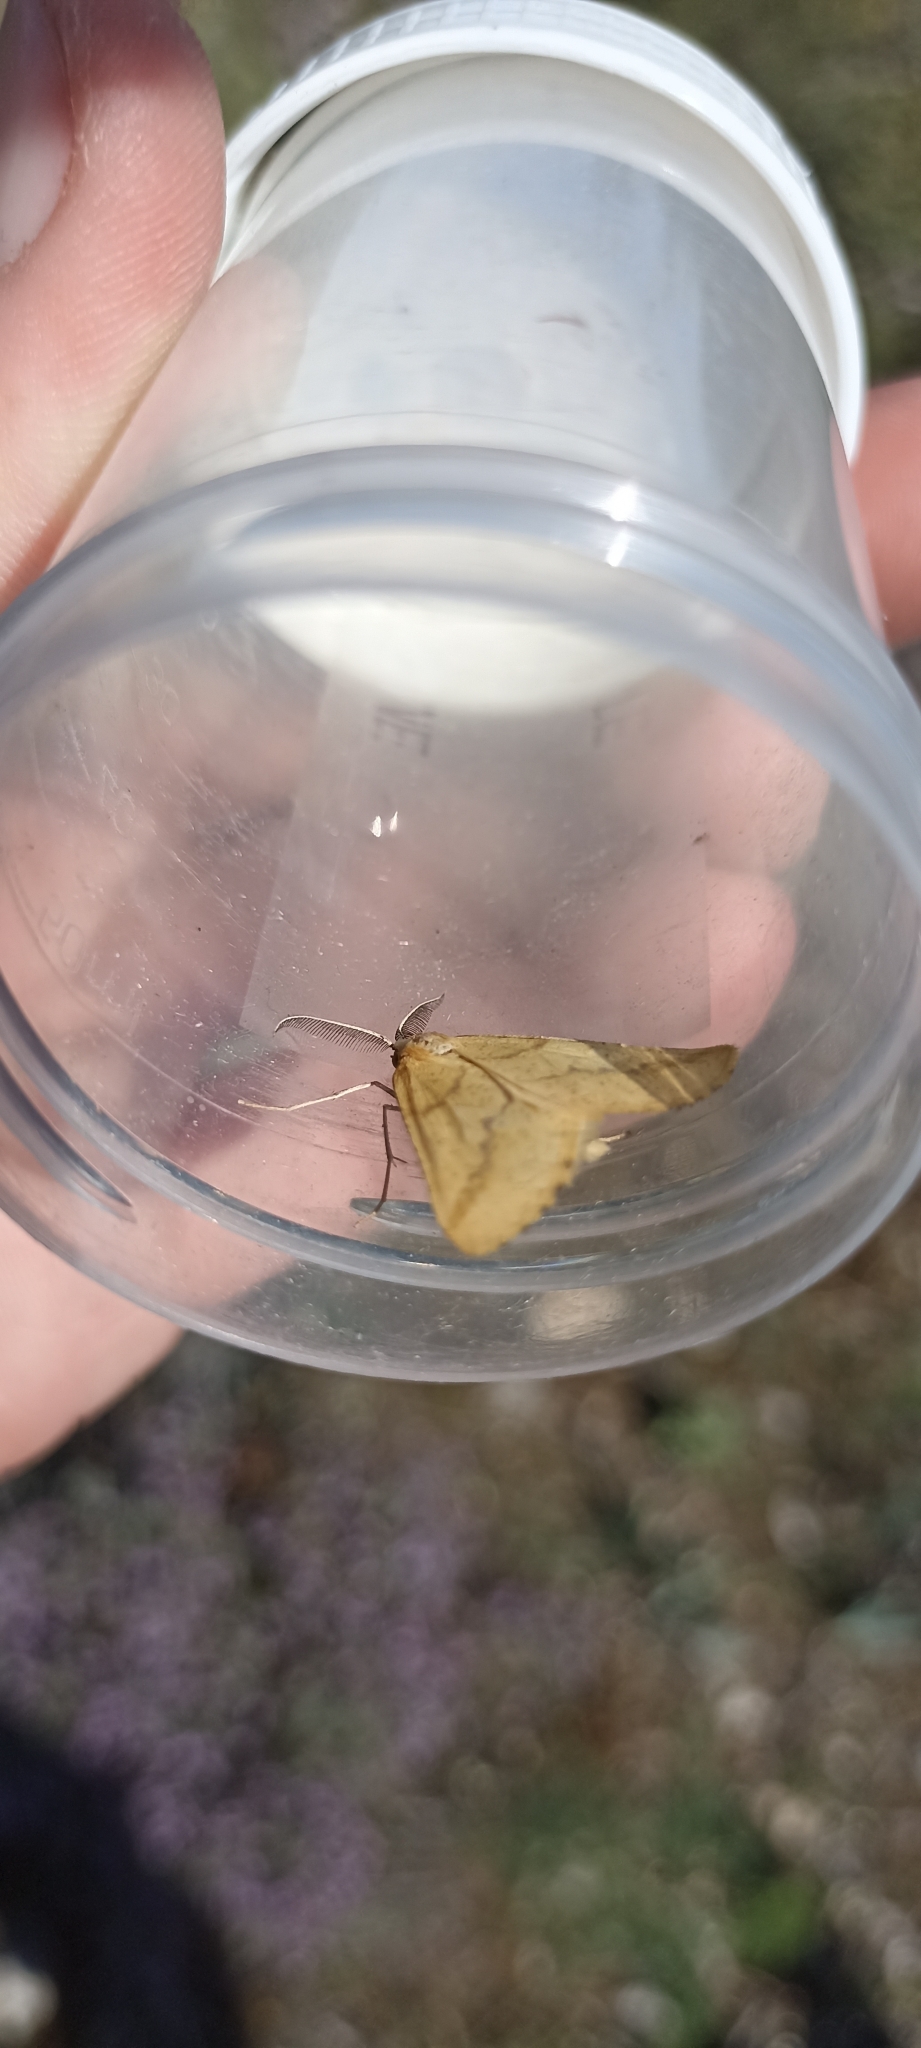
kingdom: Animalia
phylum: Arthropoda
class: Insecta
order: Lepidoptera
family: Geometridae
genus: Aspitates
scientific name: Aspitates ochrearia
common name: Yellow belle
